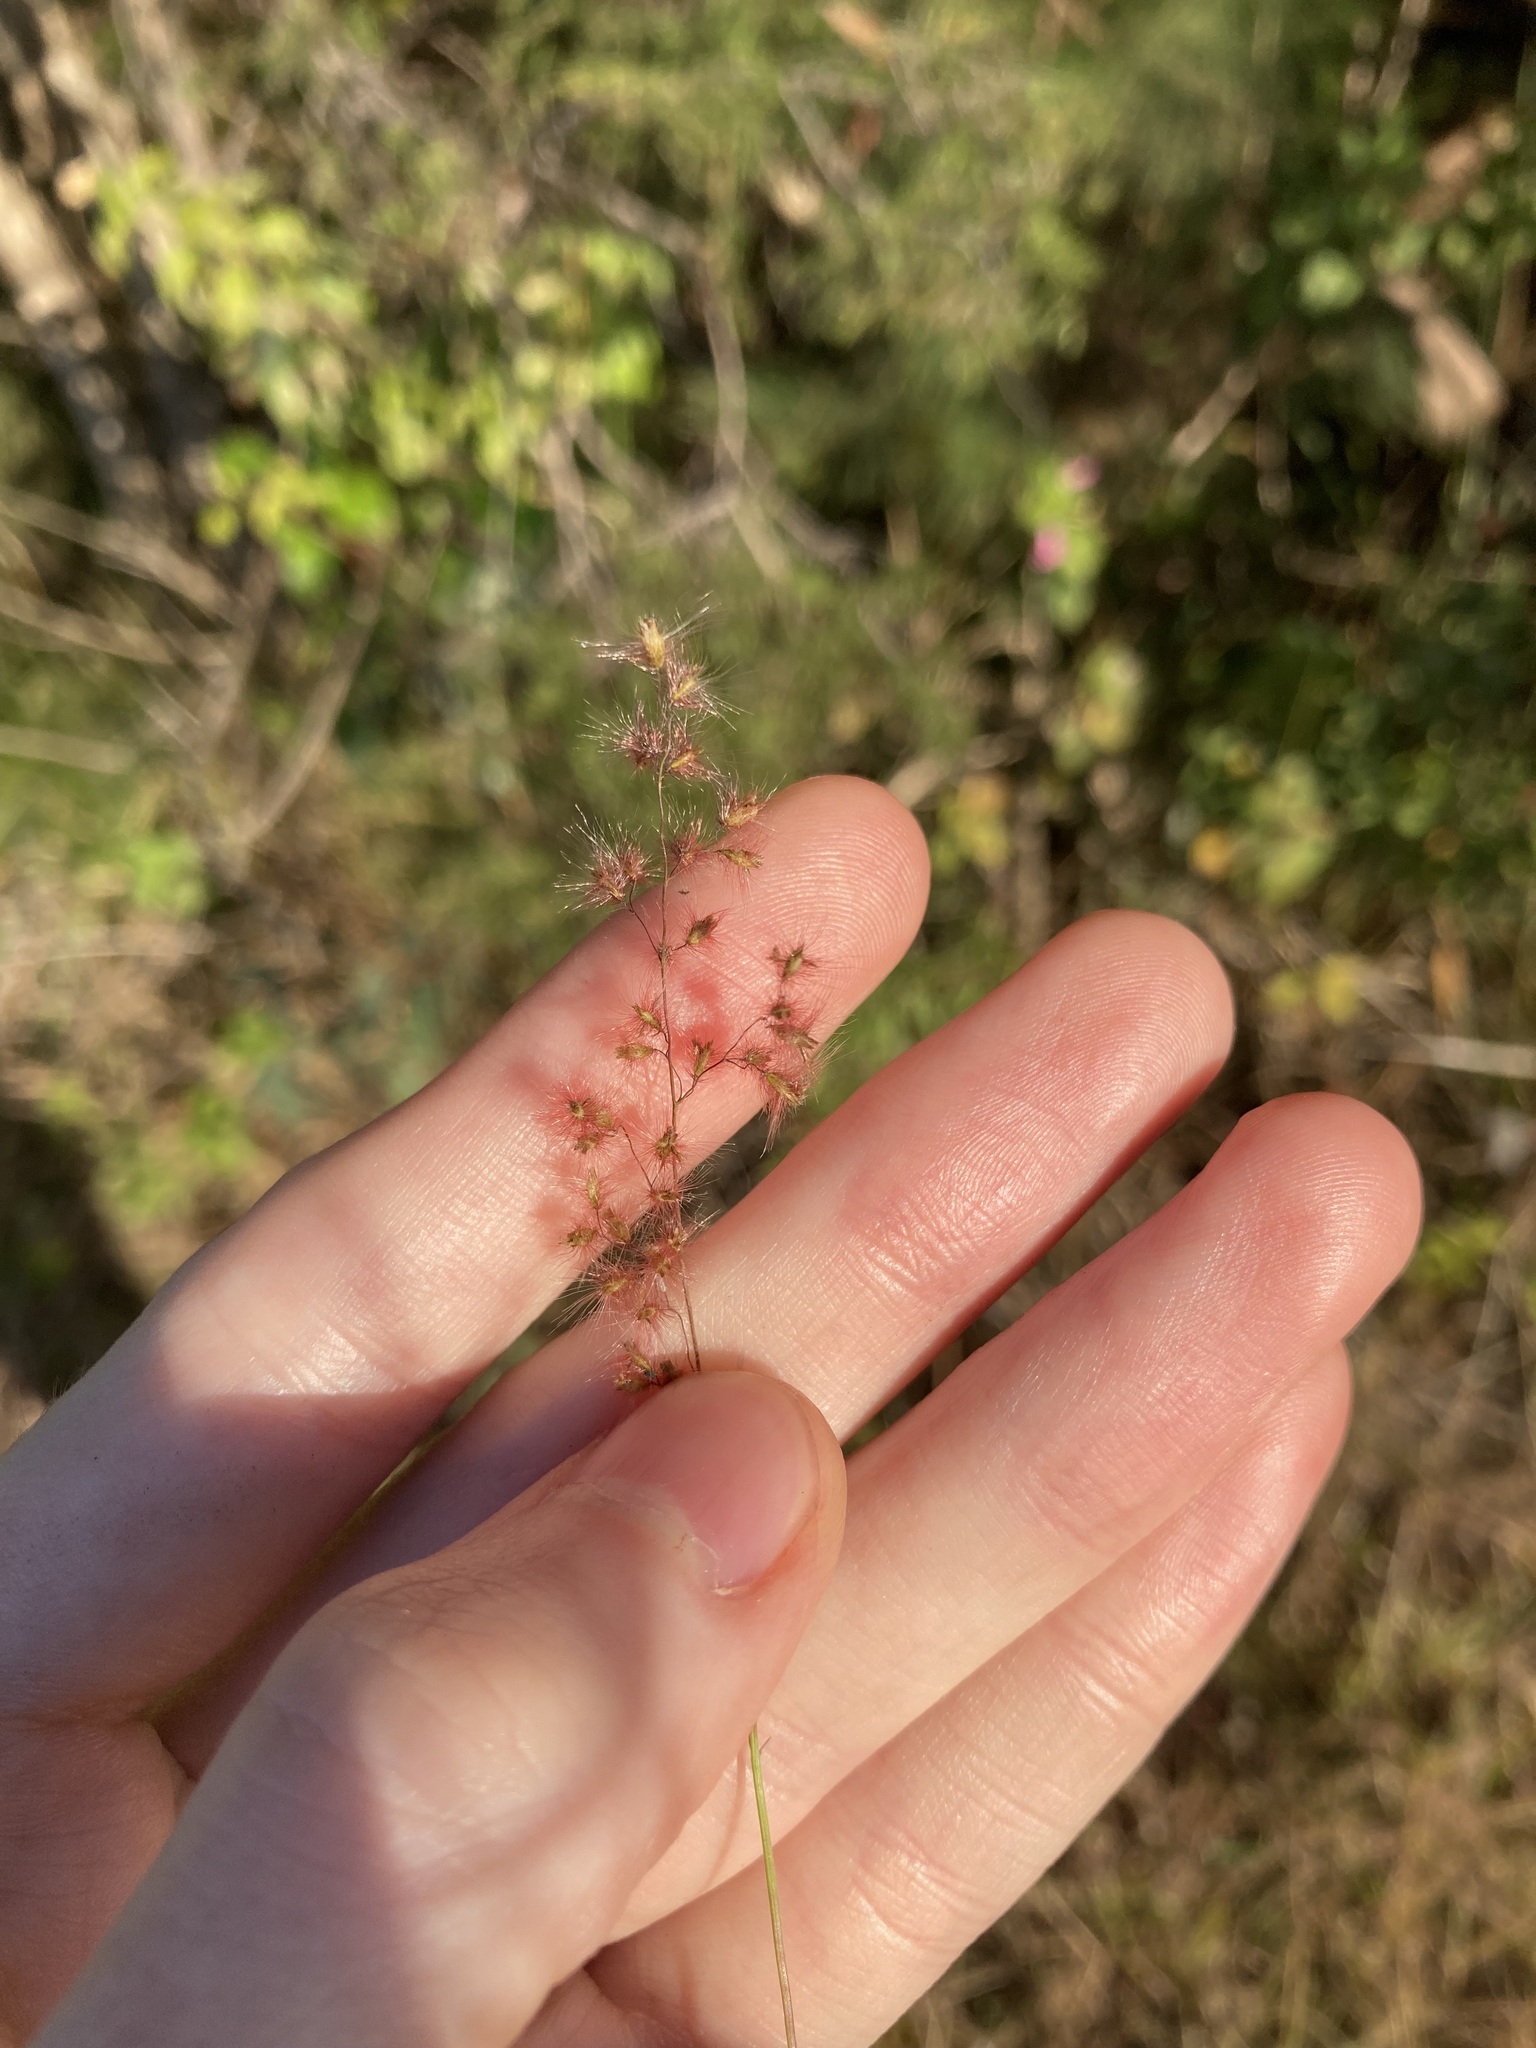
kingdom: Plantae
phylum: Tracheophyta
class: Liliopsida
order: Poales
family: Poaceae
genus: Melinis
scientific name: Melinis repens
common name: Rose natal grass
